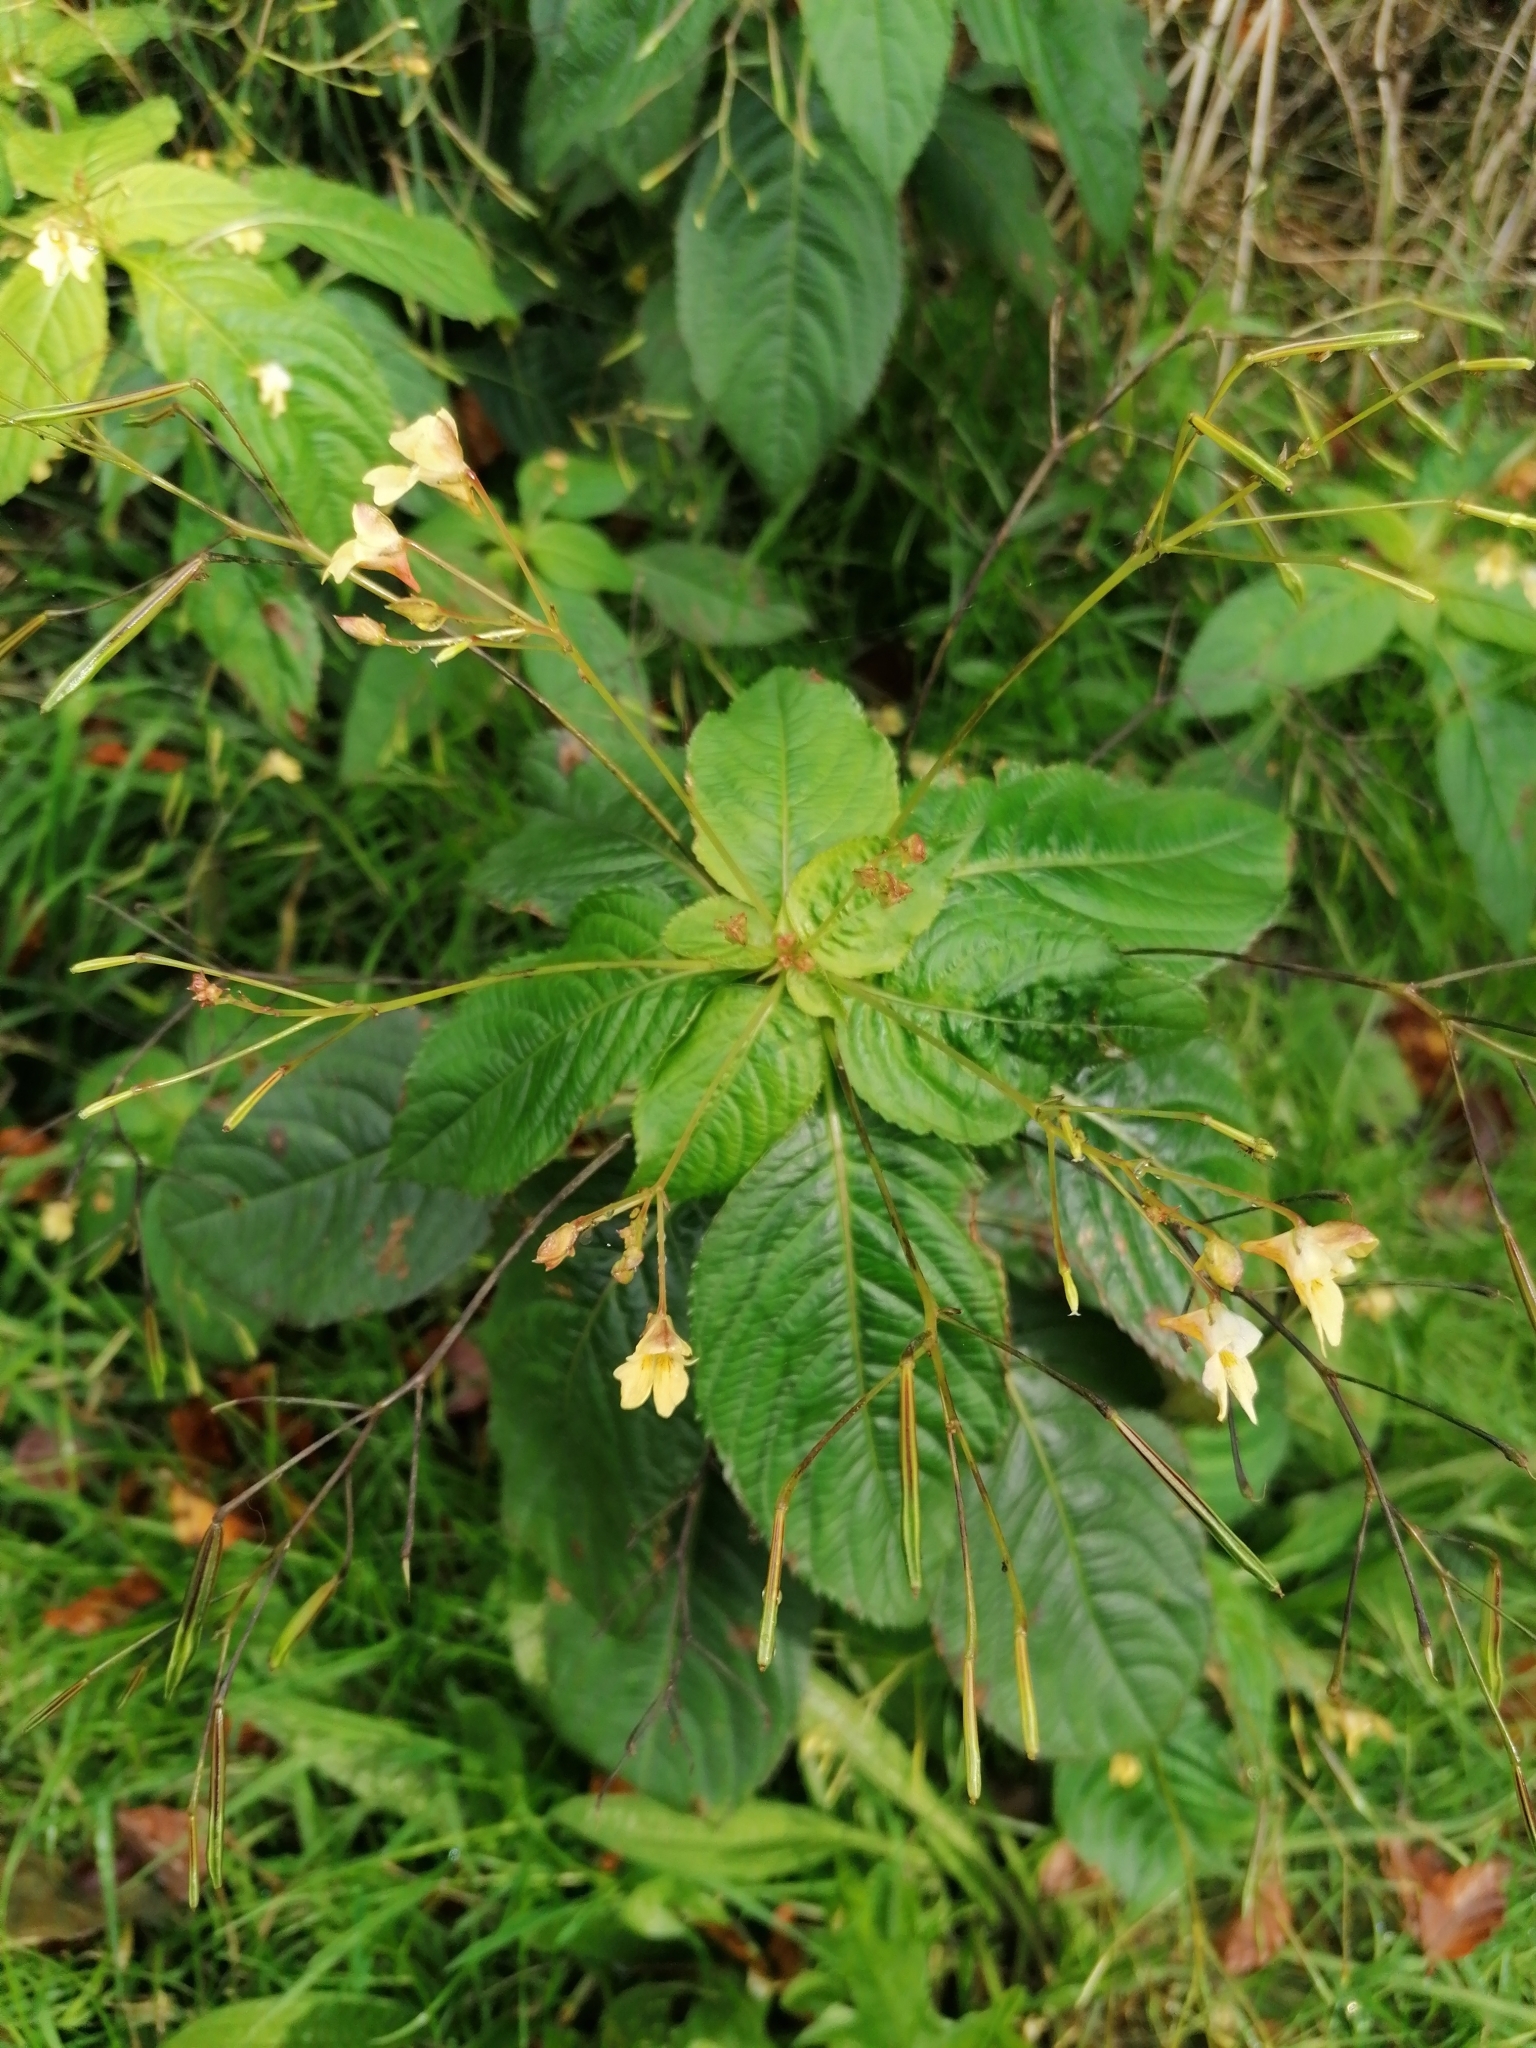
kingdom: Plantae
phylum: Tracheophyta
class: Magnoliopsida
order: Ericales
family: Balsaminaceae
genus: Impatiens
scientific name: Impatiens parviflora
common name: Small balsam
